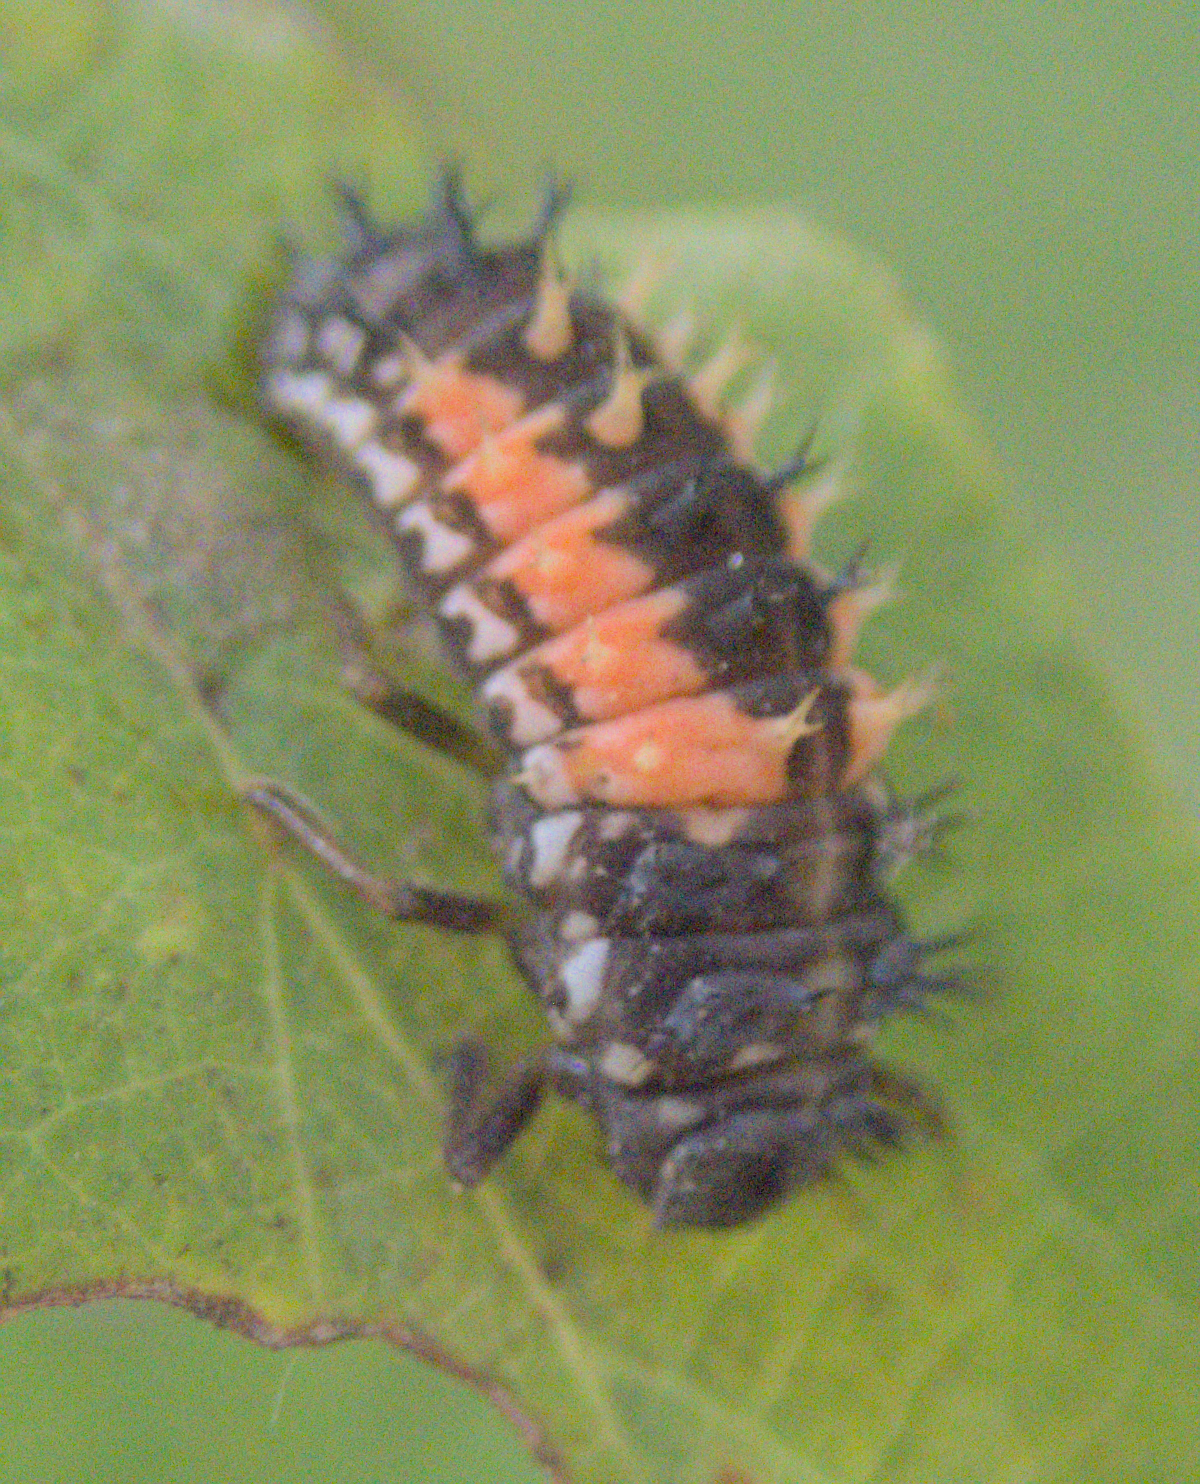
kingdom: Animalia
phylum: Arthropoda
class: Insecta
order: Coleoptera
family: Coccinellidae
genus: Harmonia
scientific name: Harmonia axyridis
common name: Harlequin ladybird
